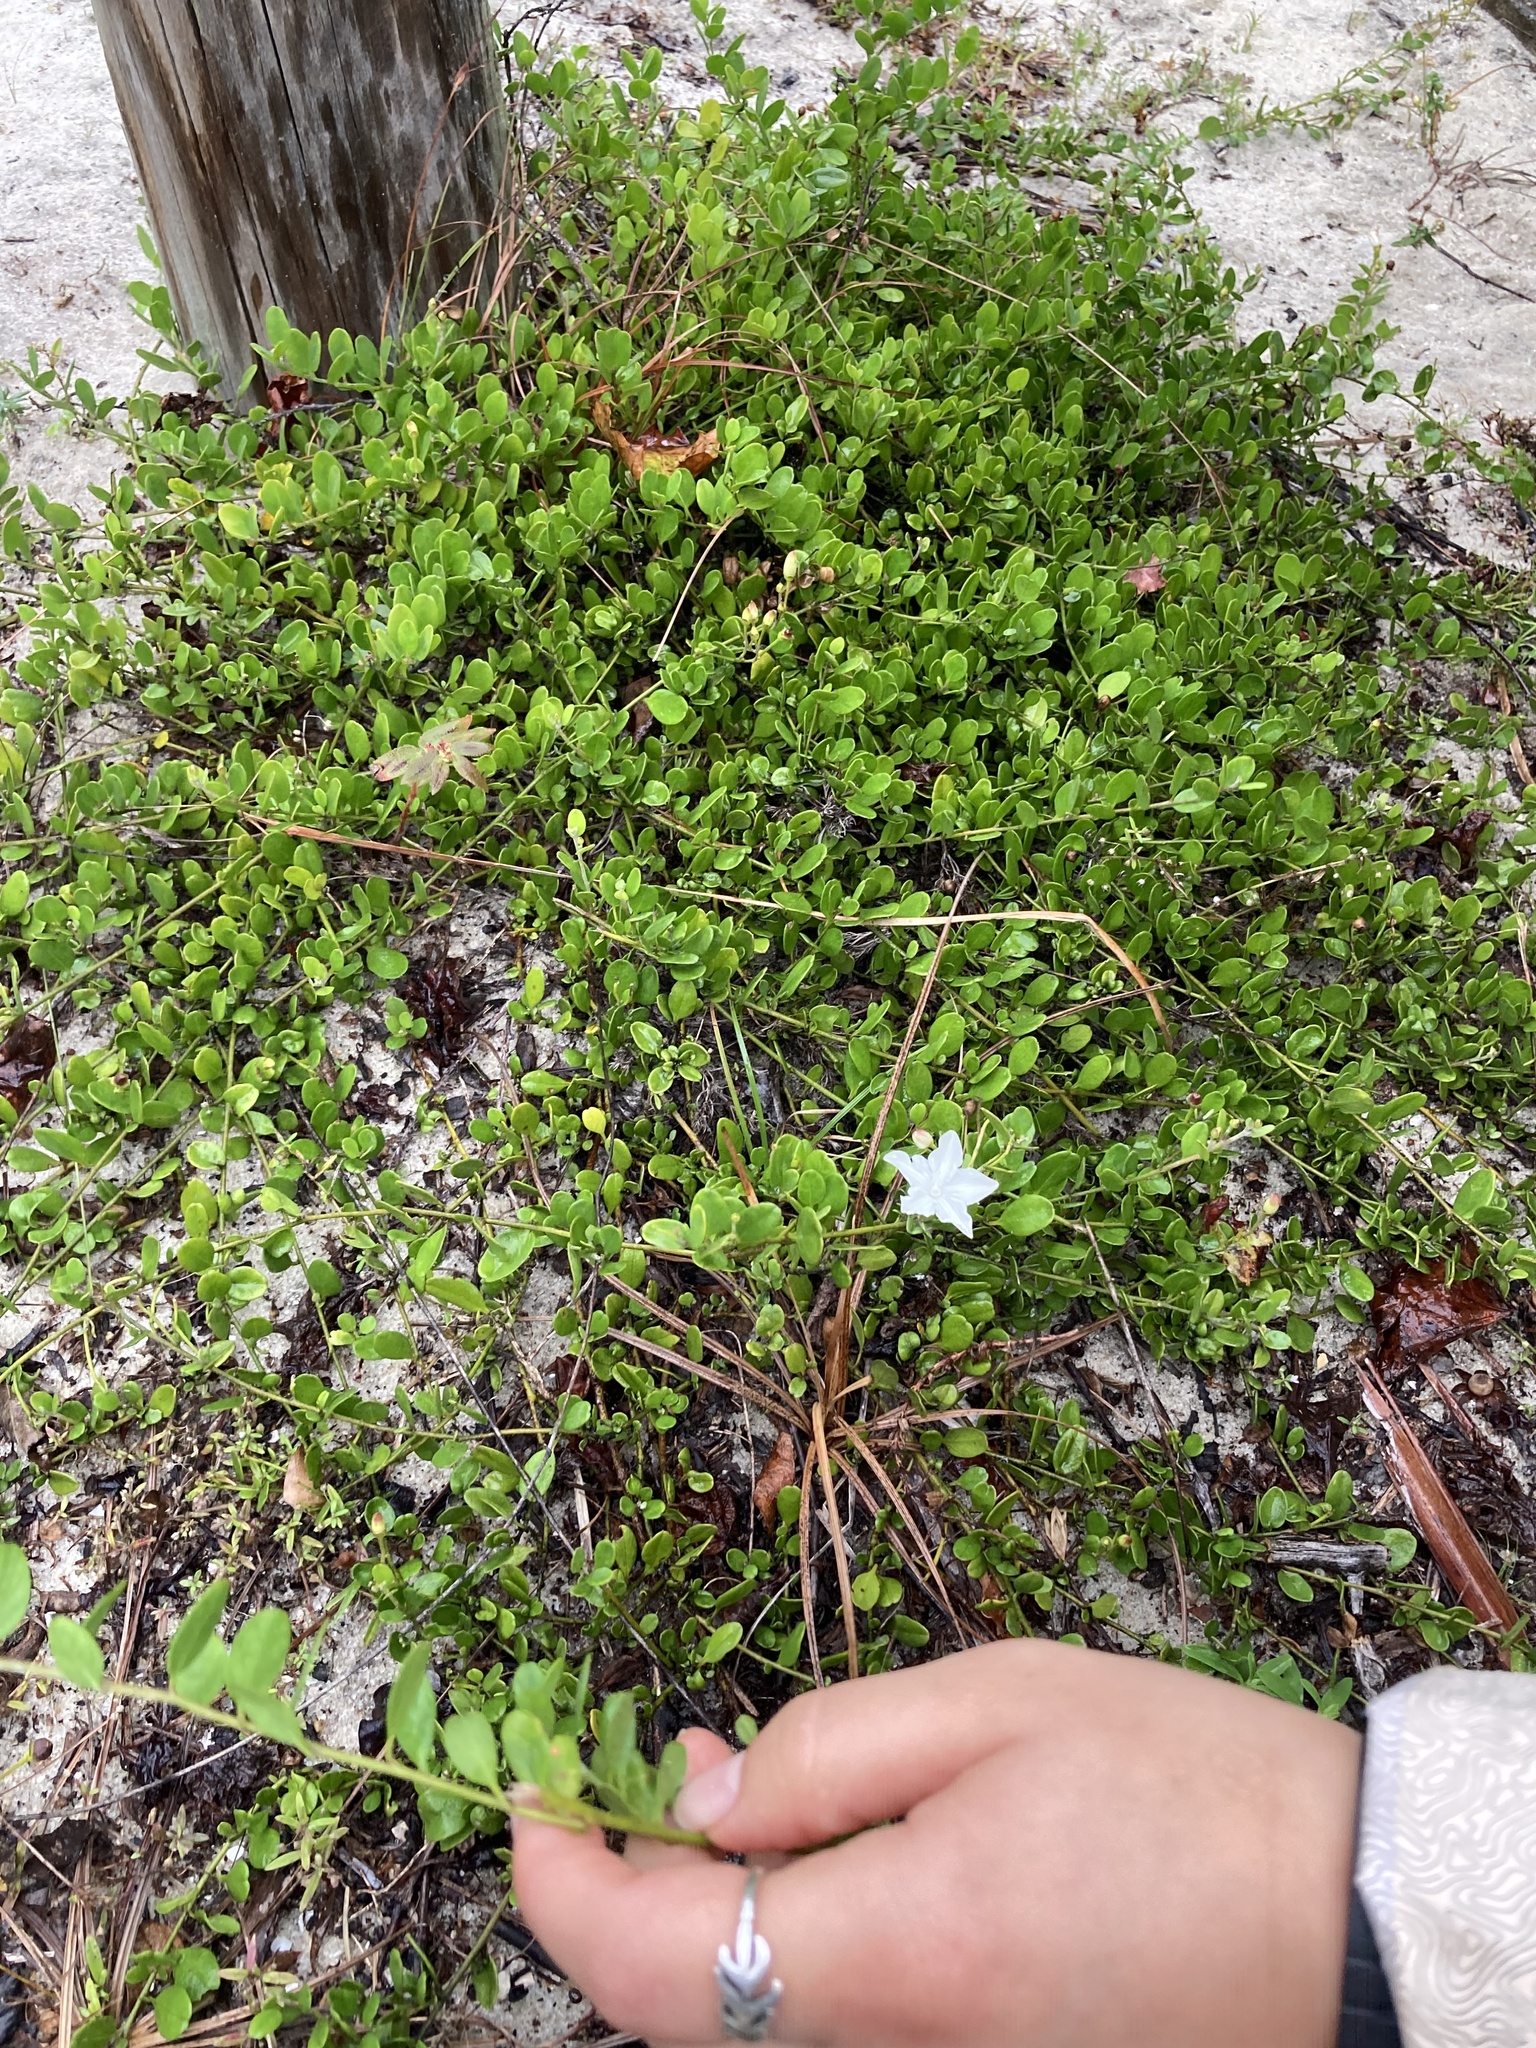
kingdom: Plantae
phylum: Tracheophyta
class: Magnoliopsida
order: Solanales
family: Convolvulaceae
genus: Jacquemontia
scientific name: Jacquemontia reclinata
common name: Beach jacquemontia
